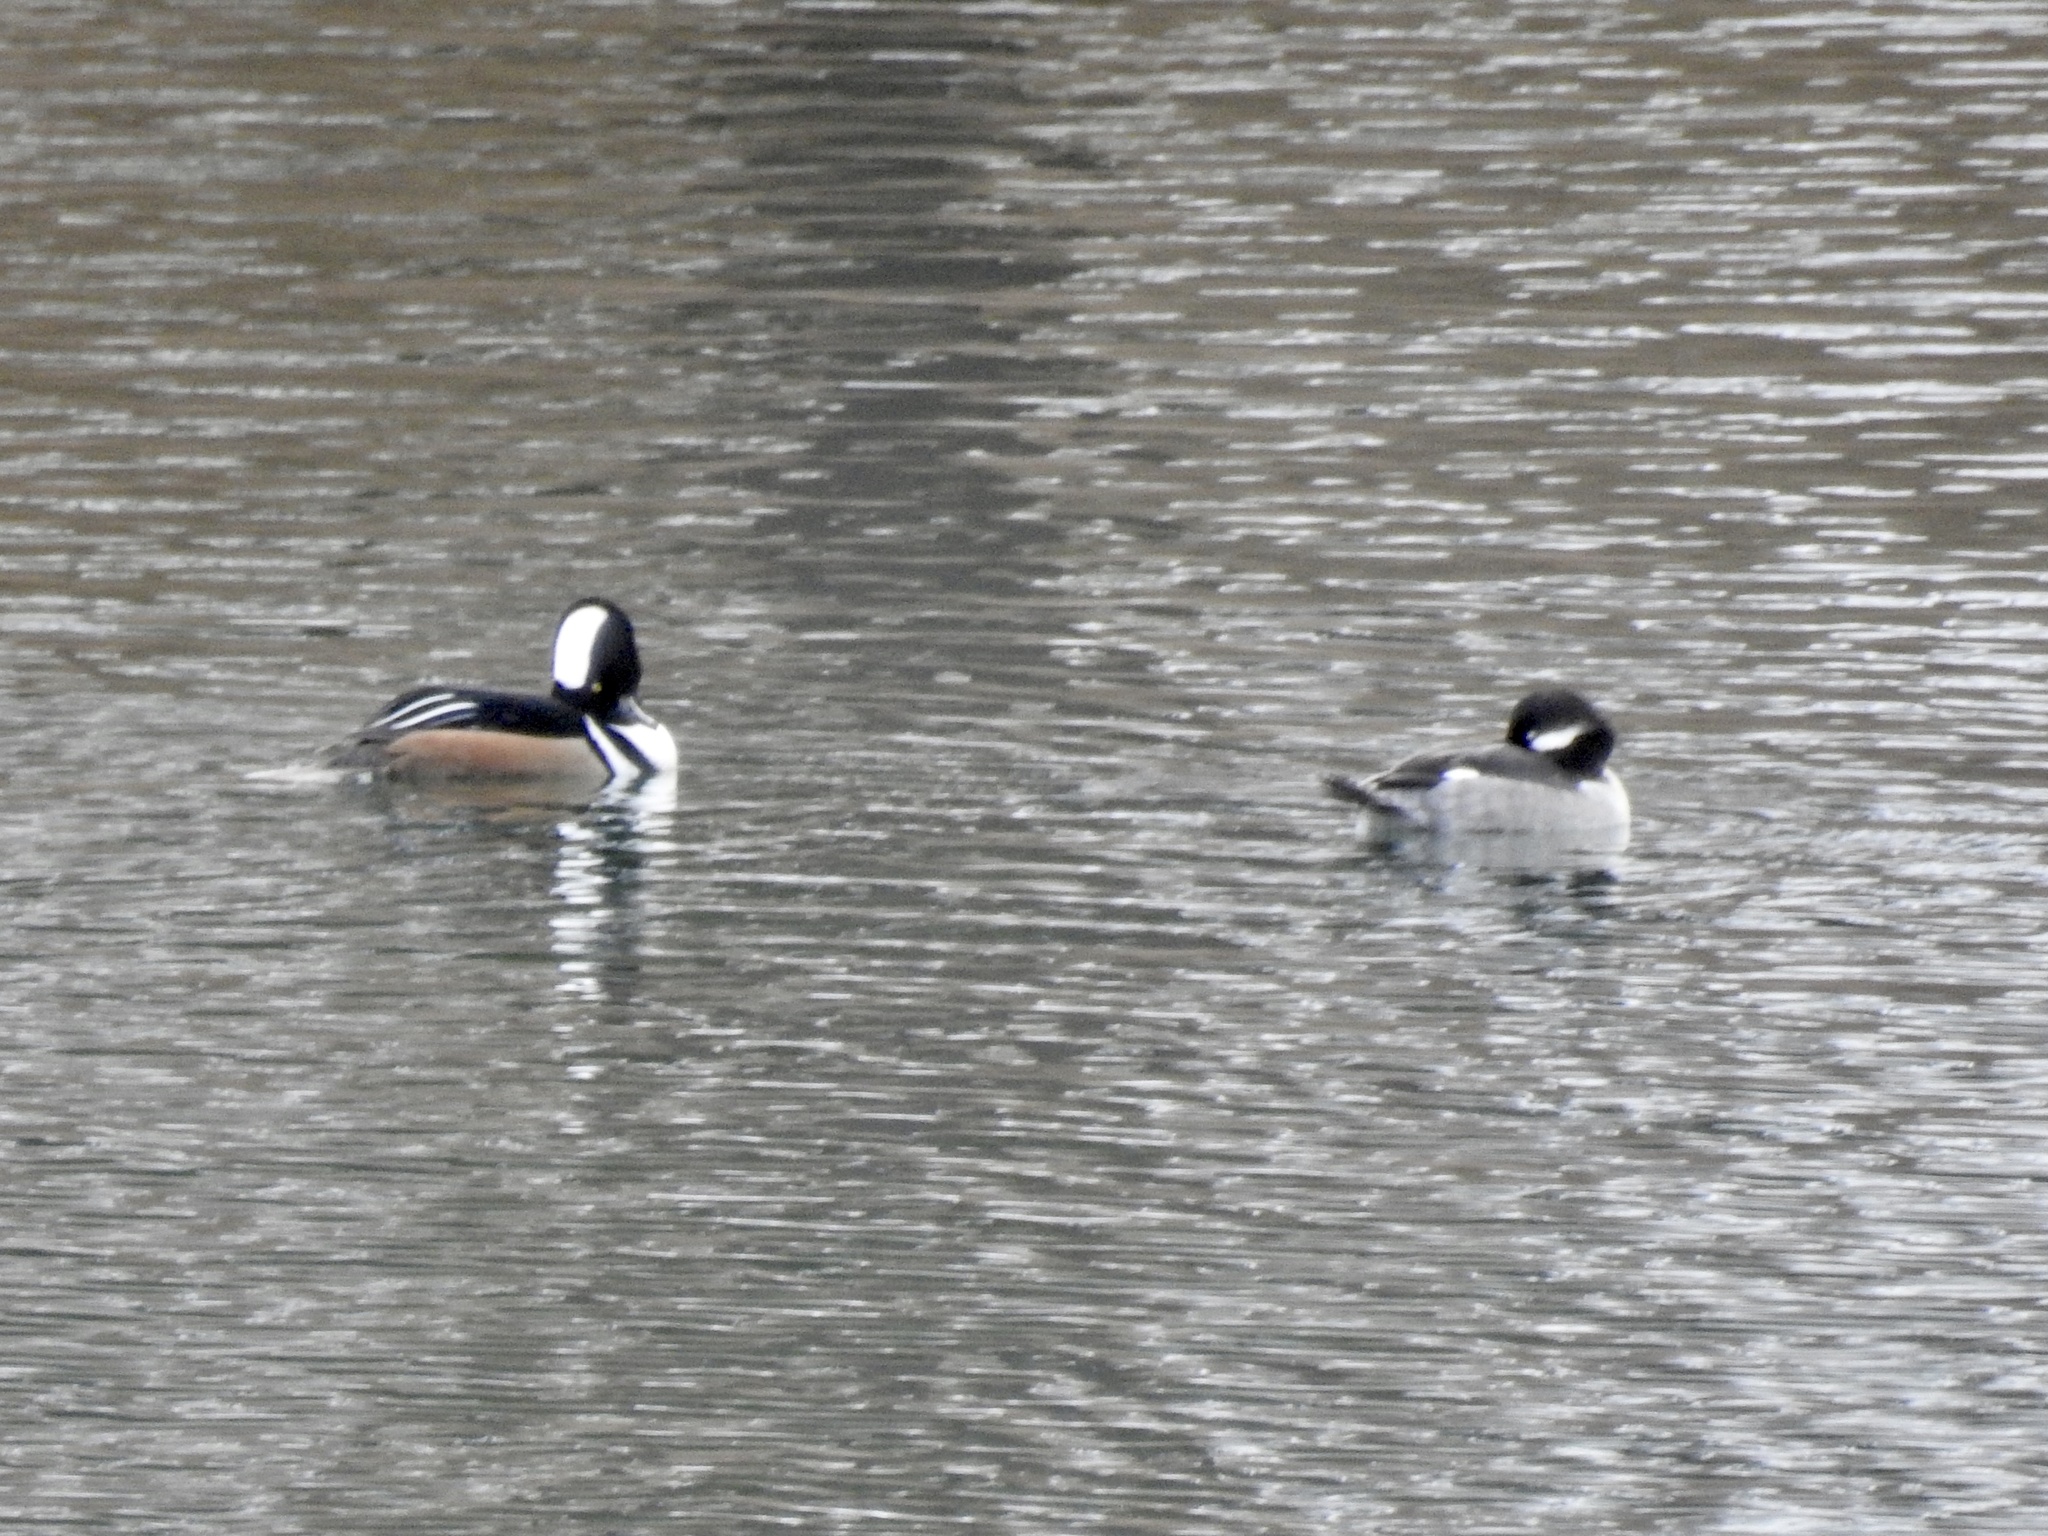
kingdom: Animalia
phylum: Chordata
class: Aves
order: Anseriformes
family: Anatidae
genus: Lophodytes
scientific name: Lophodytes cucullatus
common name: Hooded merganser
